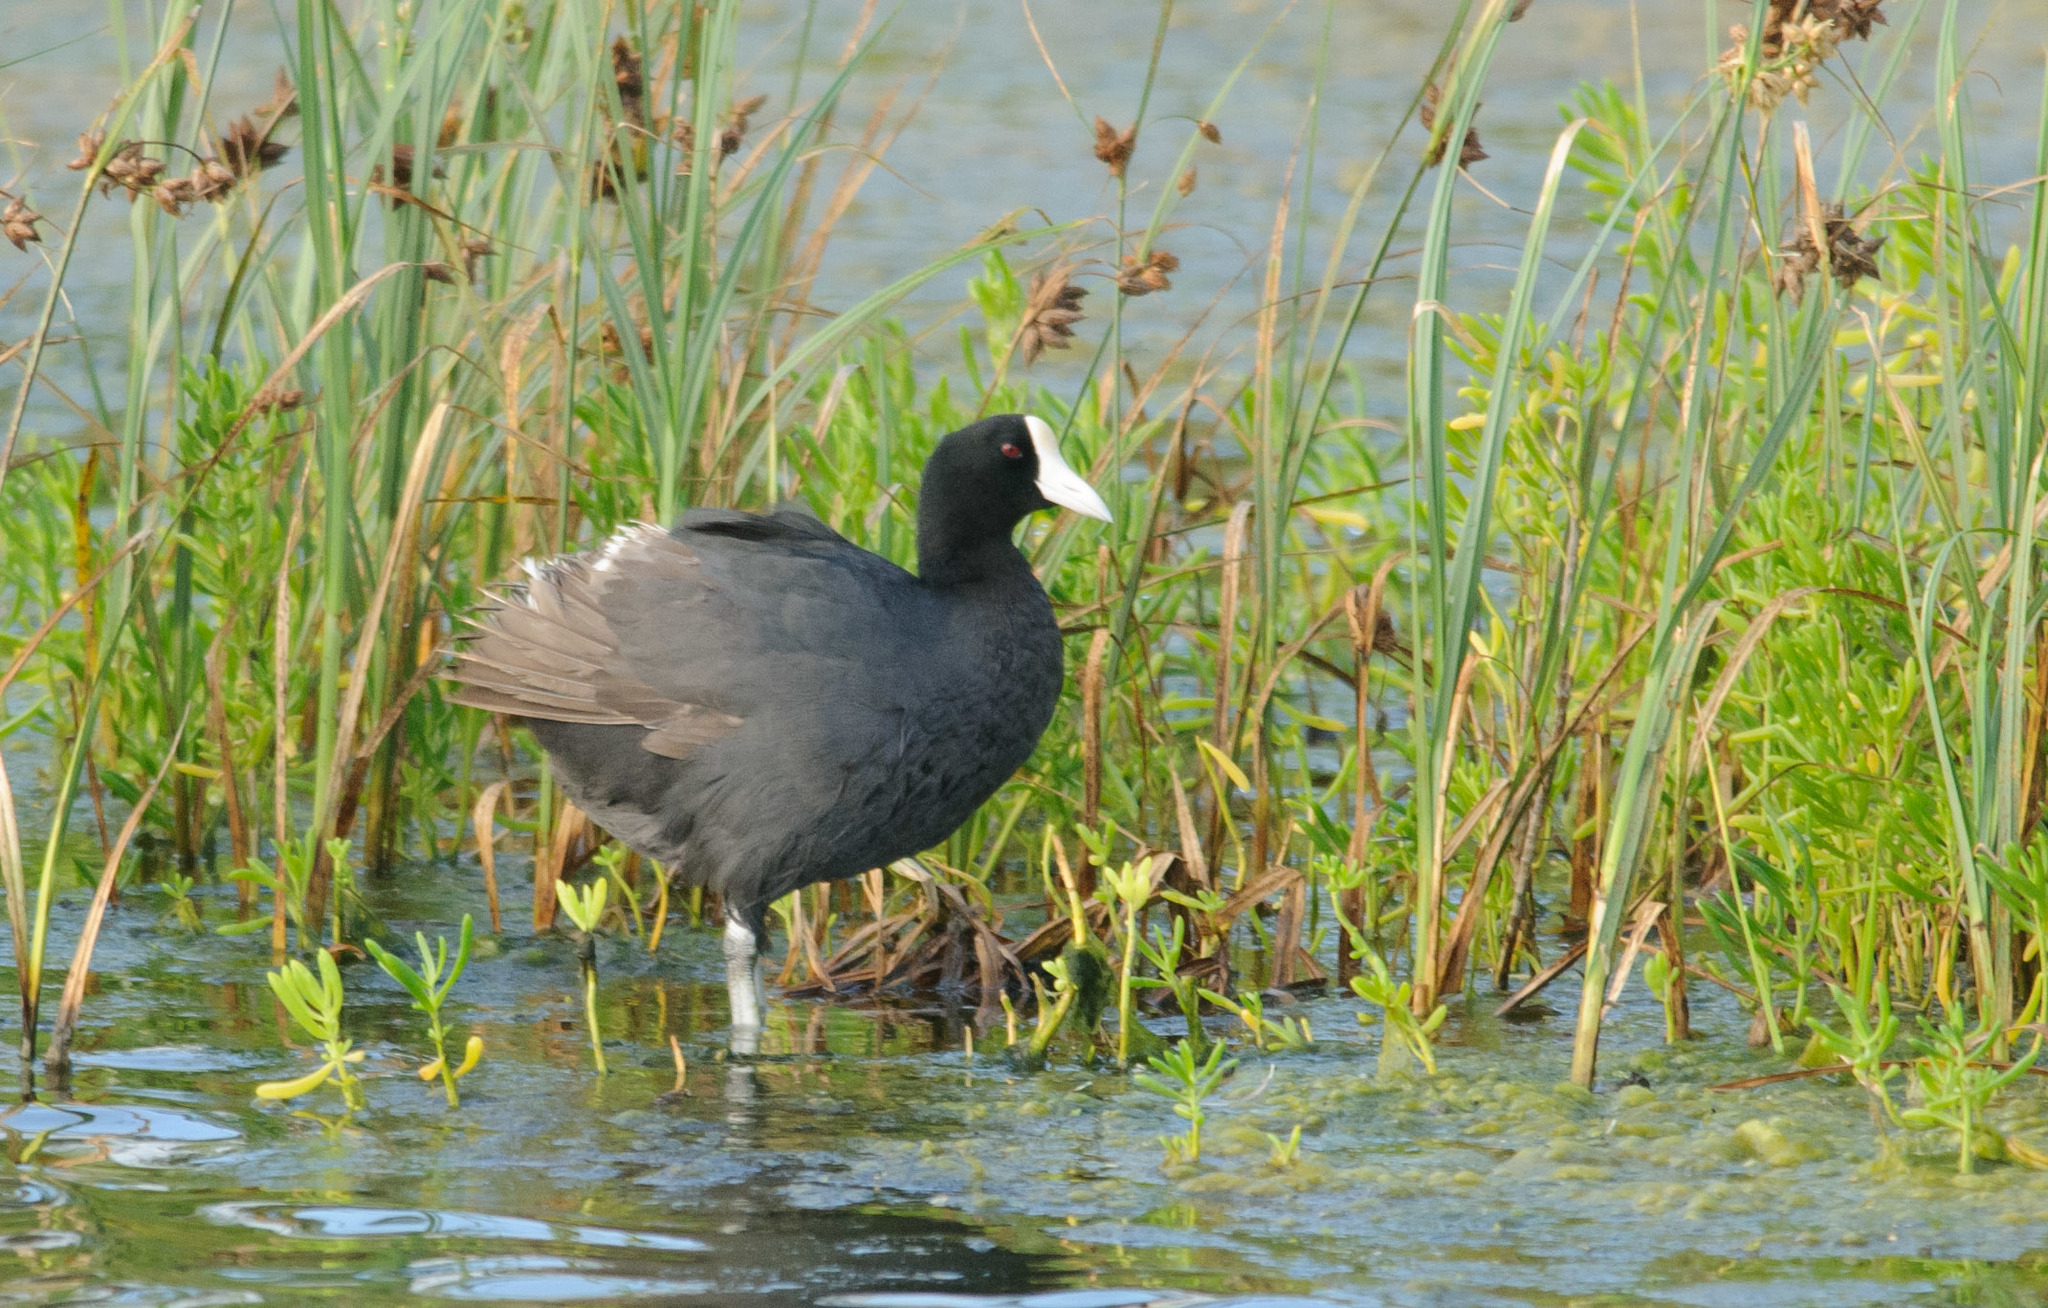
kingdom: Animalia
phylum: Chordata
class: Aves
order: Gruiformes
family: Rallidae
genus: Fulica
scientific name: Fulica alai
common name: Hawaiian coot
